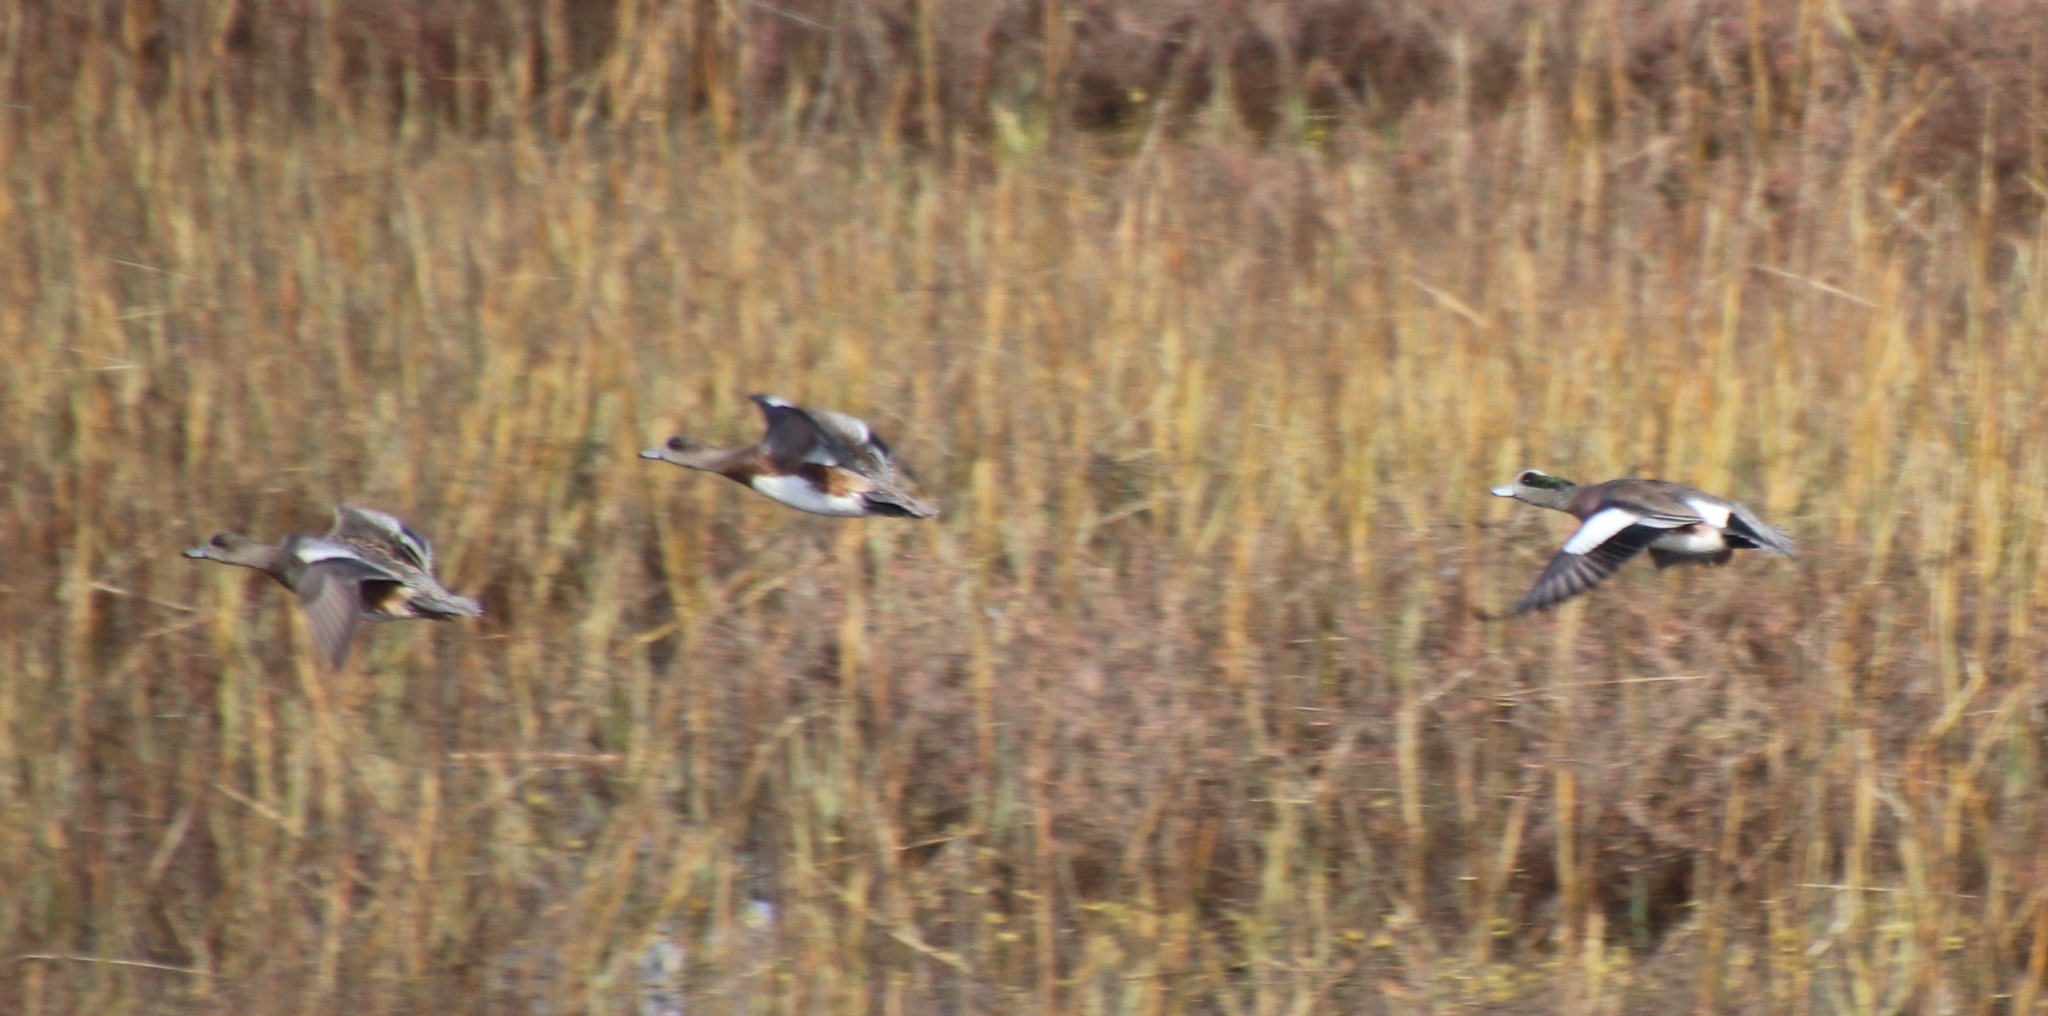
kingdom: Animalia
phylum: Chordata
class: Aves
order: Anseriformes
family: Anatidae
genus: Mareca
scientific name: Mareca americana
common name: American wigeon
